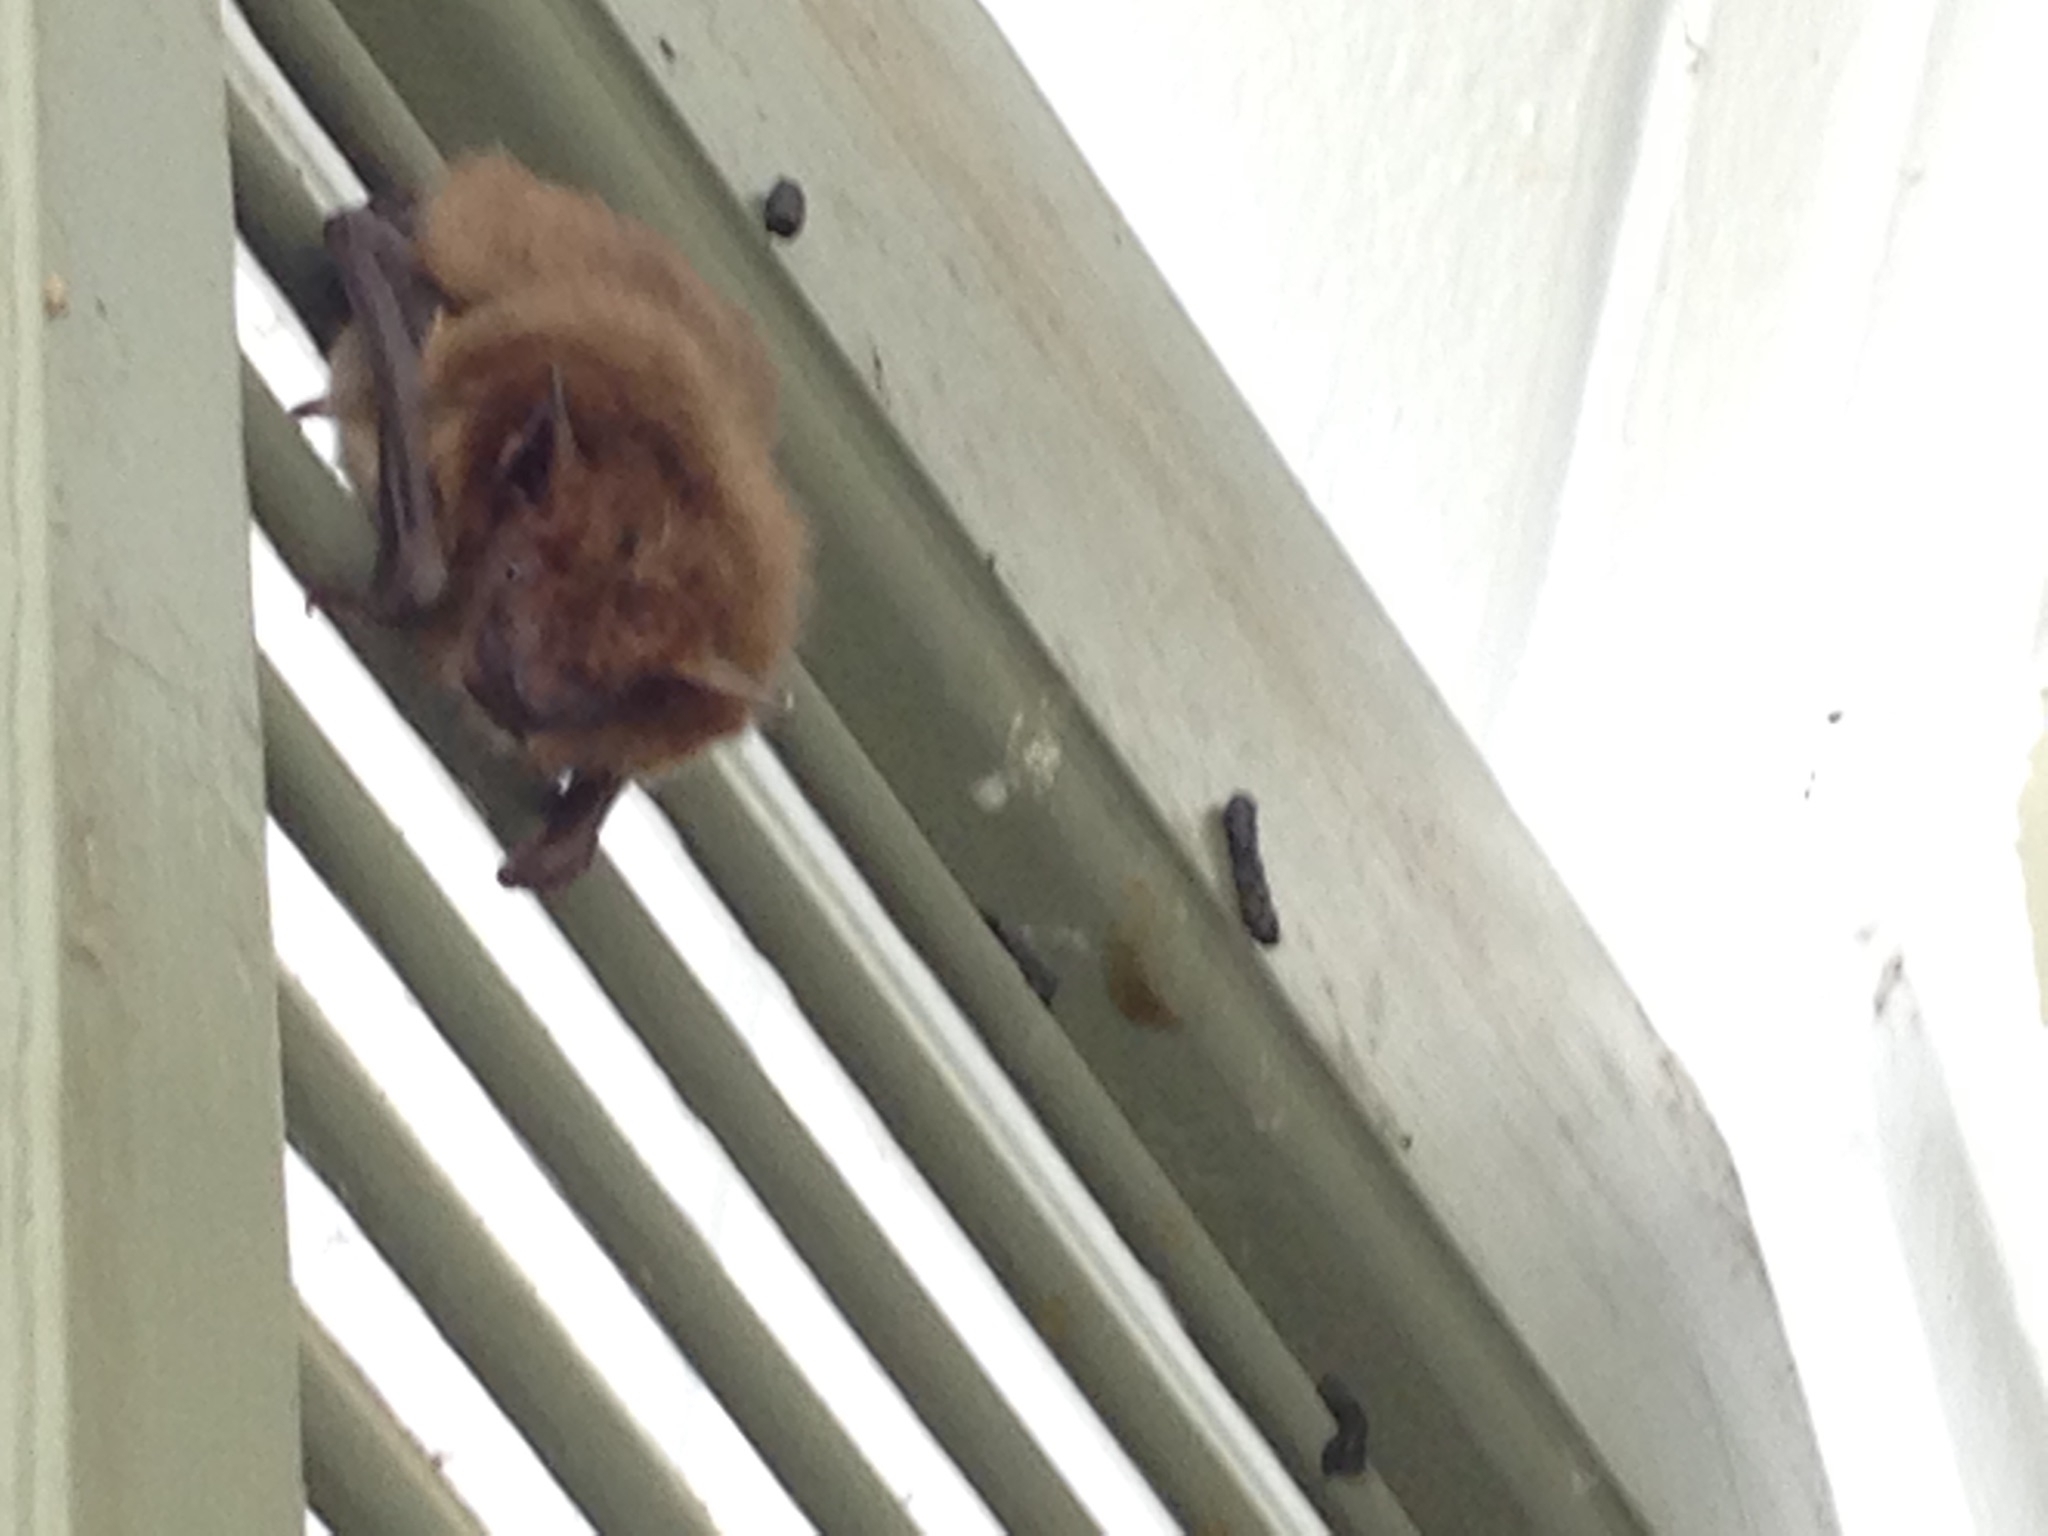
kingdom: Animalia
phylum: Chordata
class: Mammalia
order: Chiroptera
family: Vespertilionidae
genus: Eptesicus
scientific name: Eptesicus fuscus
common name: Big brown bat
